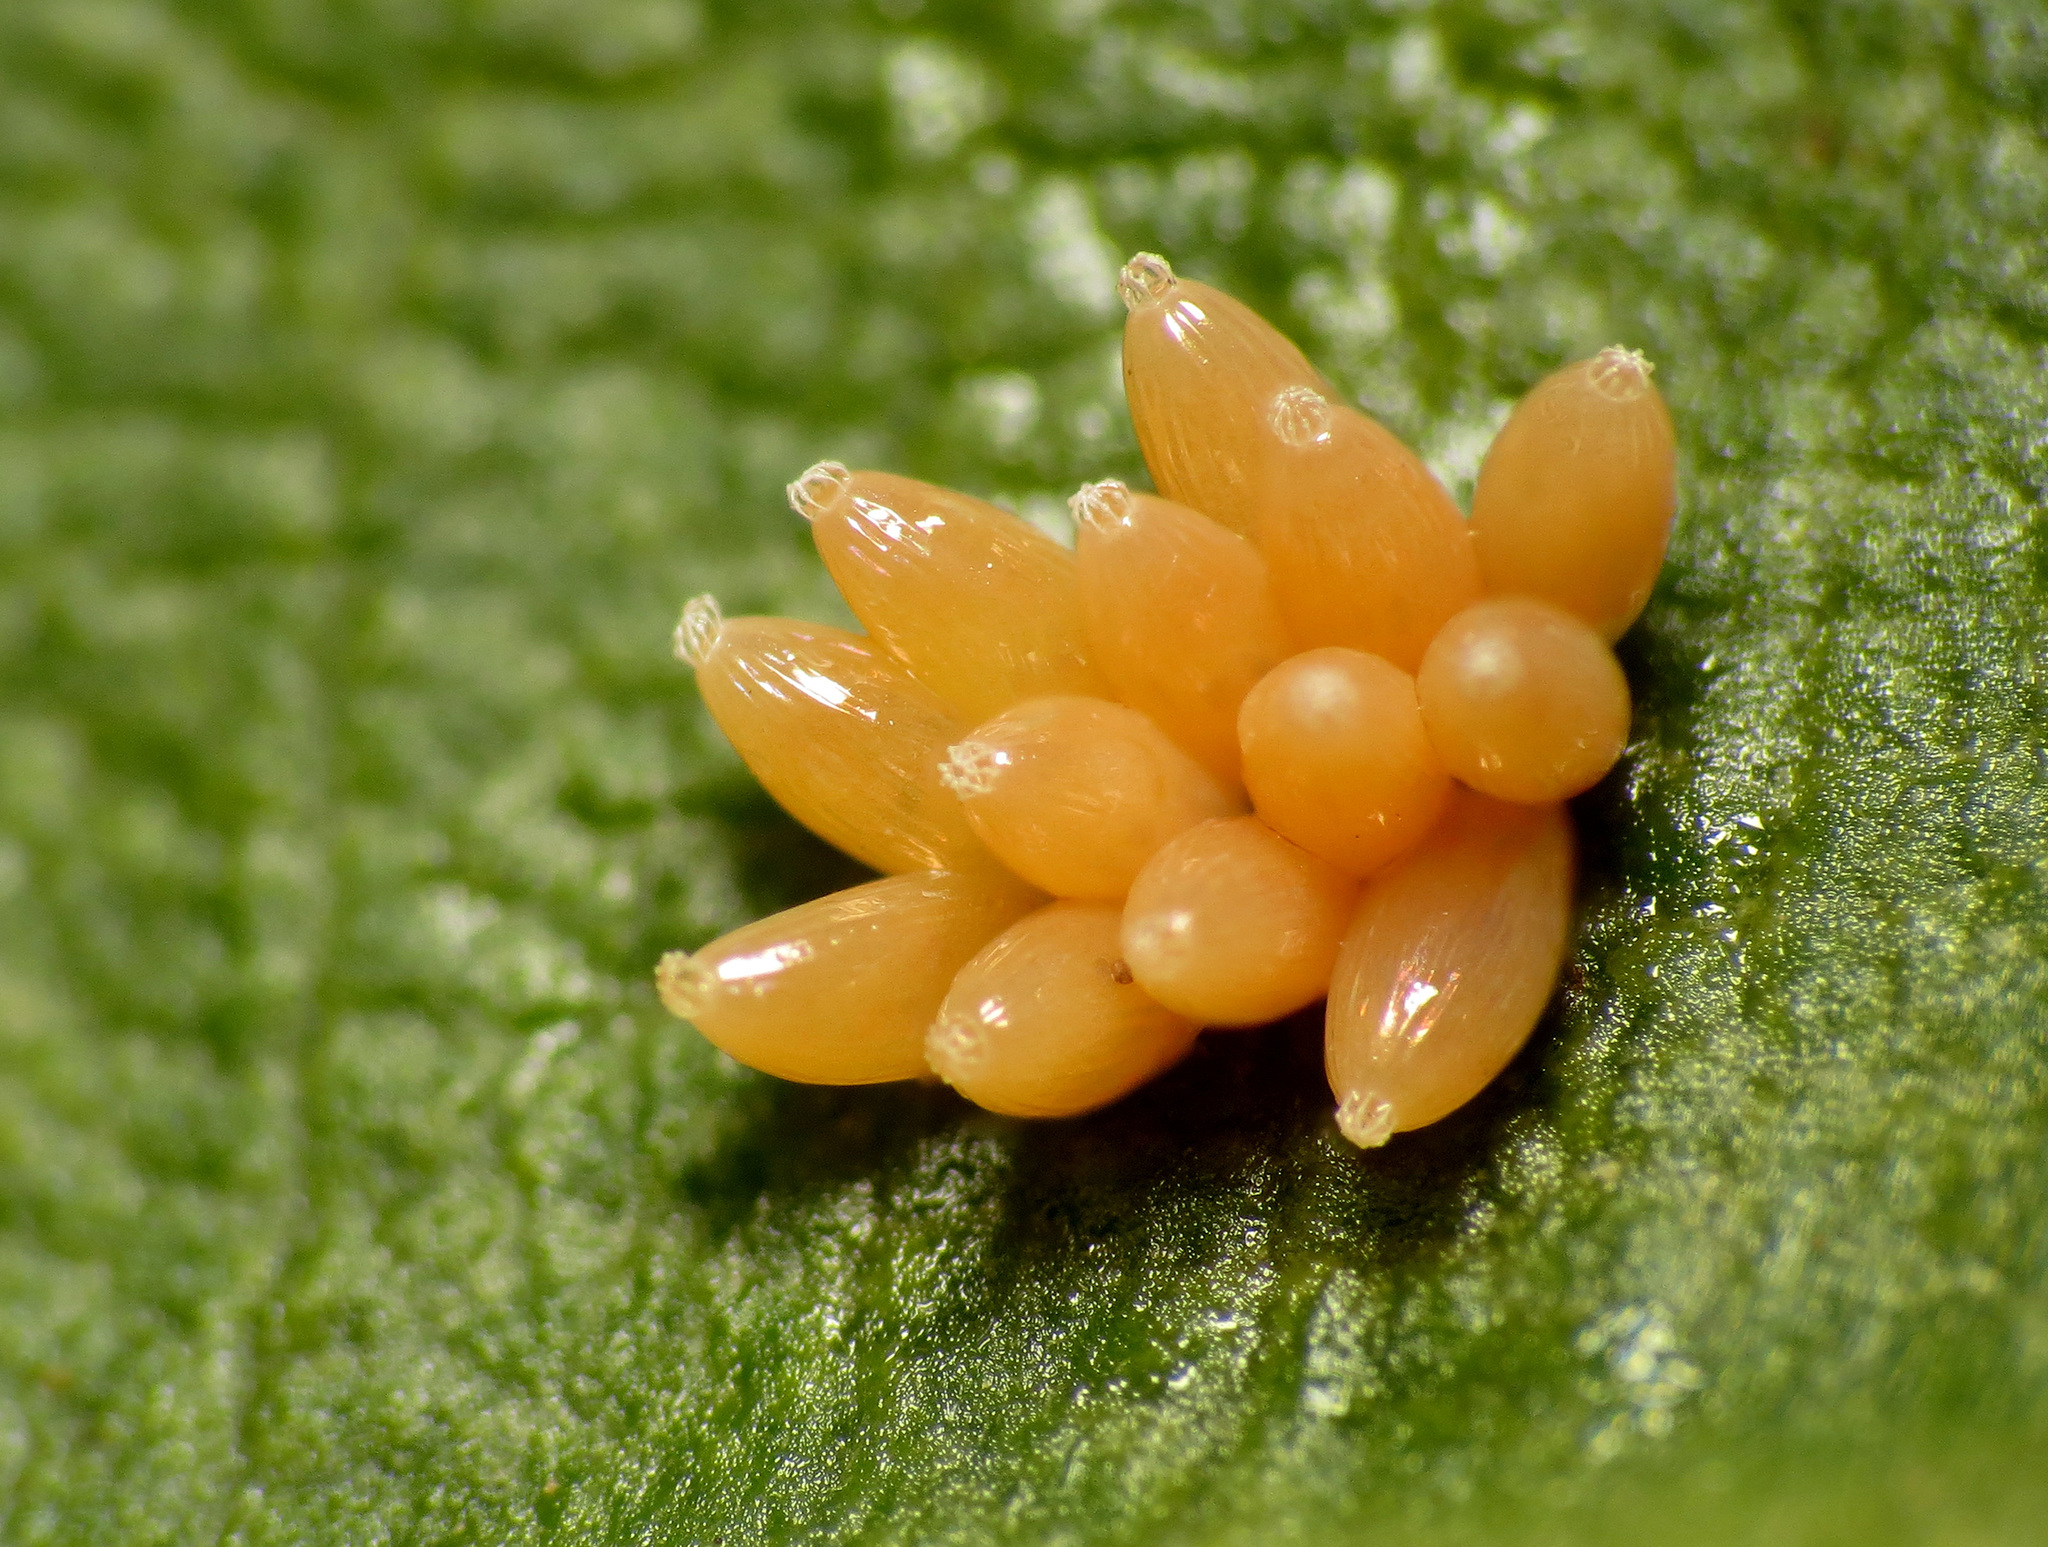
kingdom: Animalia
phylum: Arthropoda
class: Insecta
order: Hemiptera
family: Lygaeidae
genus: Caenocoris
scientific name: Caenocoris nerii
